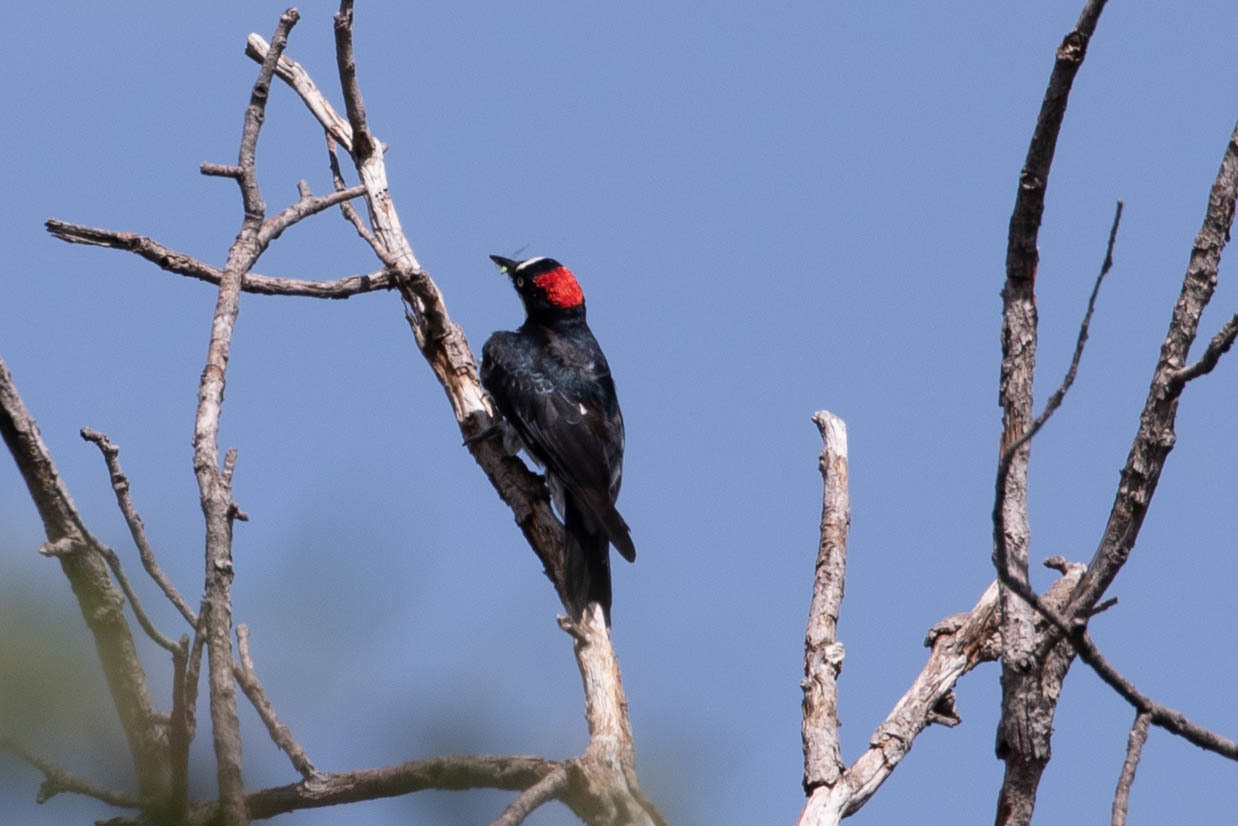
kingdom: Animalia
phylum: Chordata
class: Aves
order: Piciformes
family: Picidae
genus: Melanerpes
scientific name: Melanerpes formicivorus
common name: Acorn woodpecker
